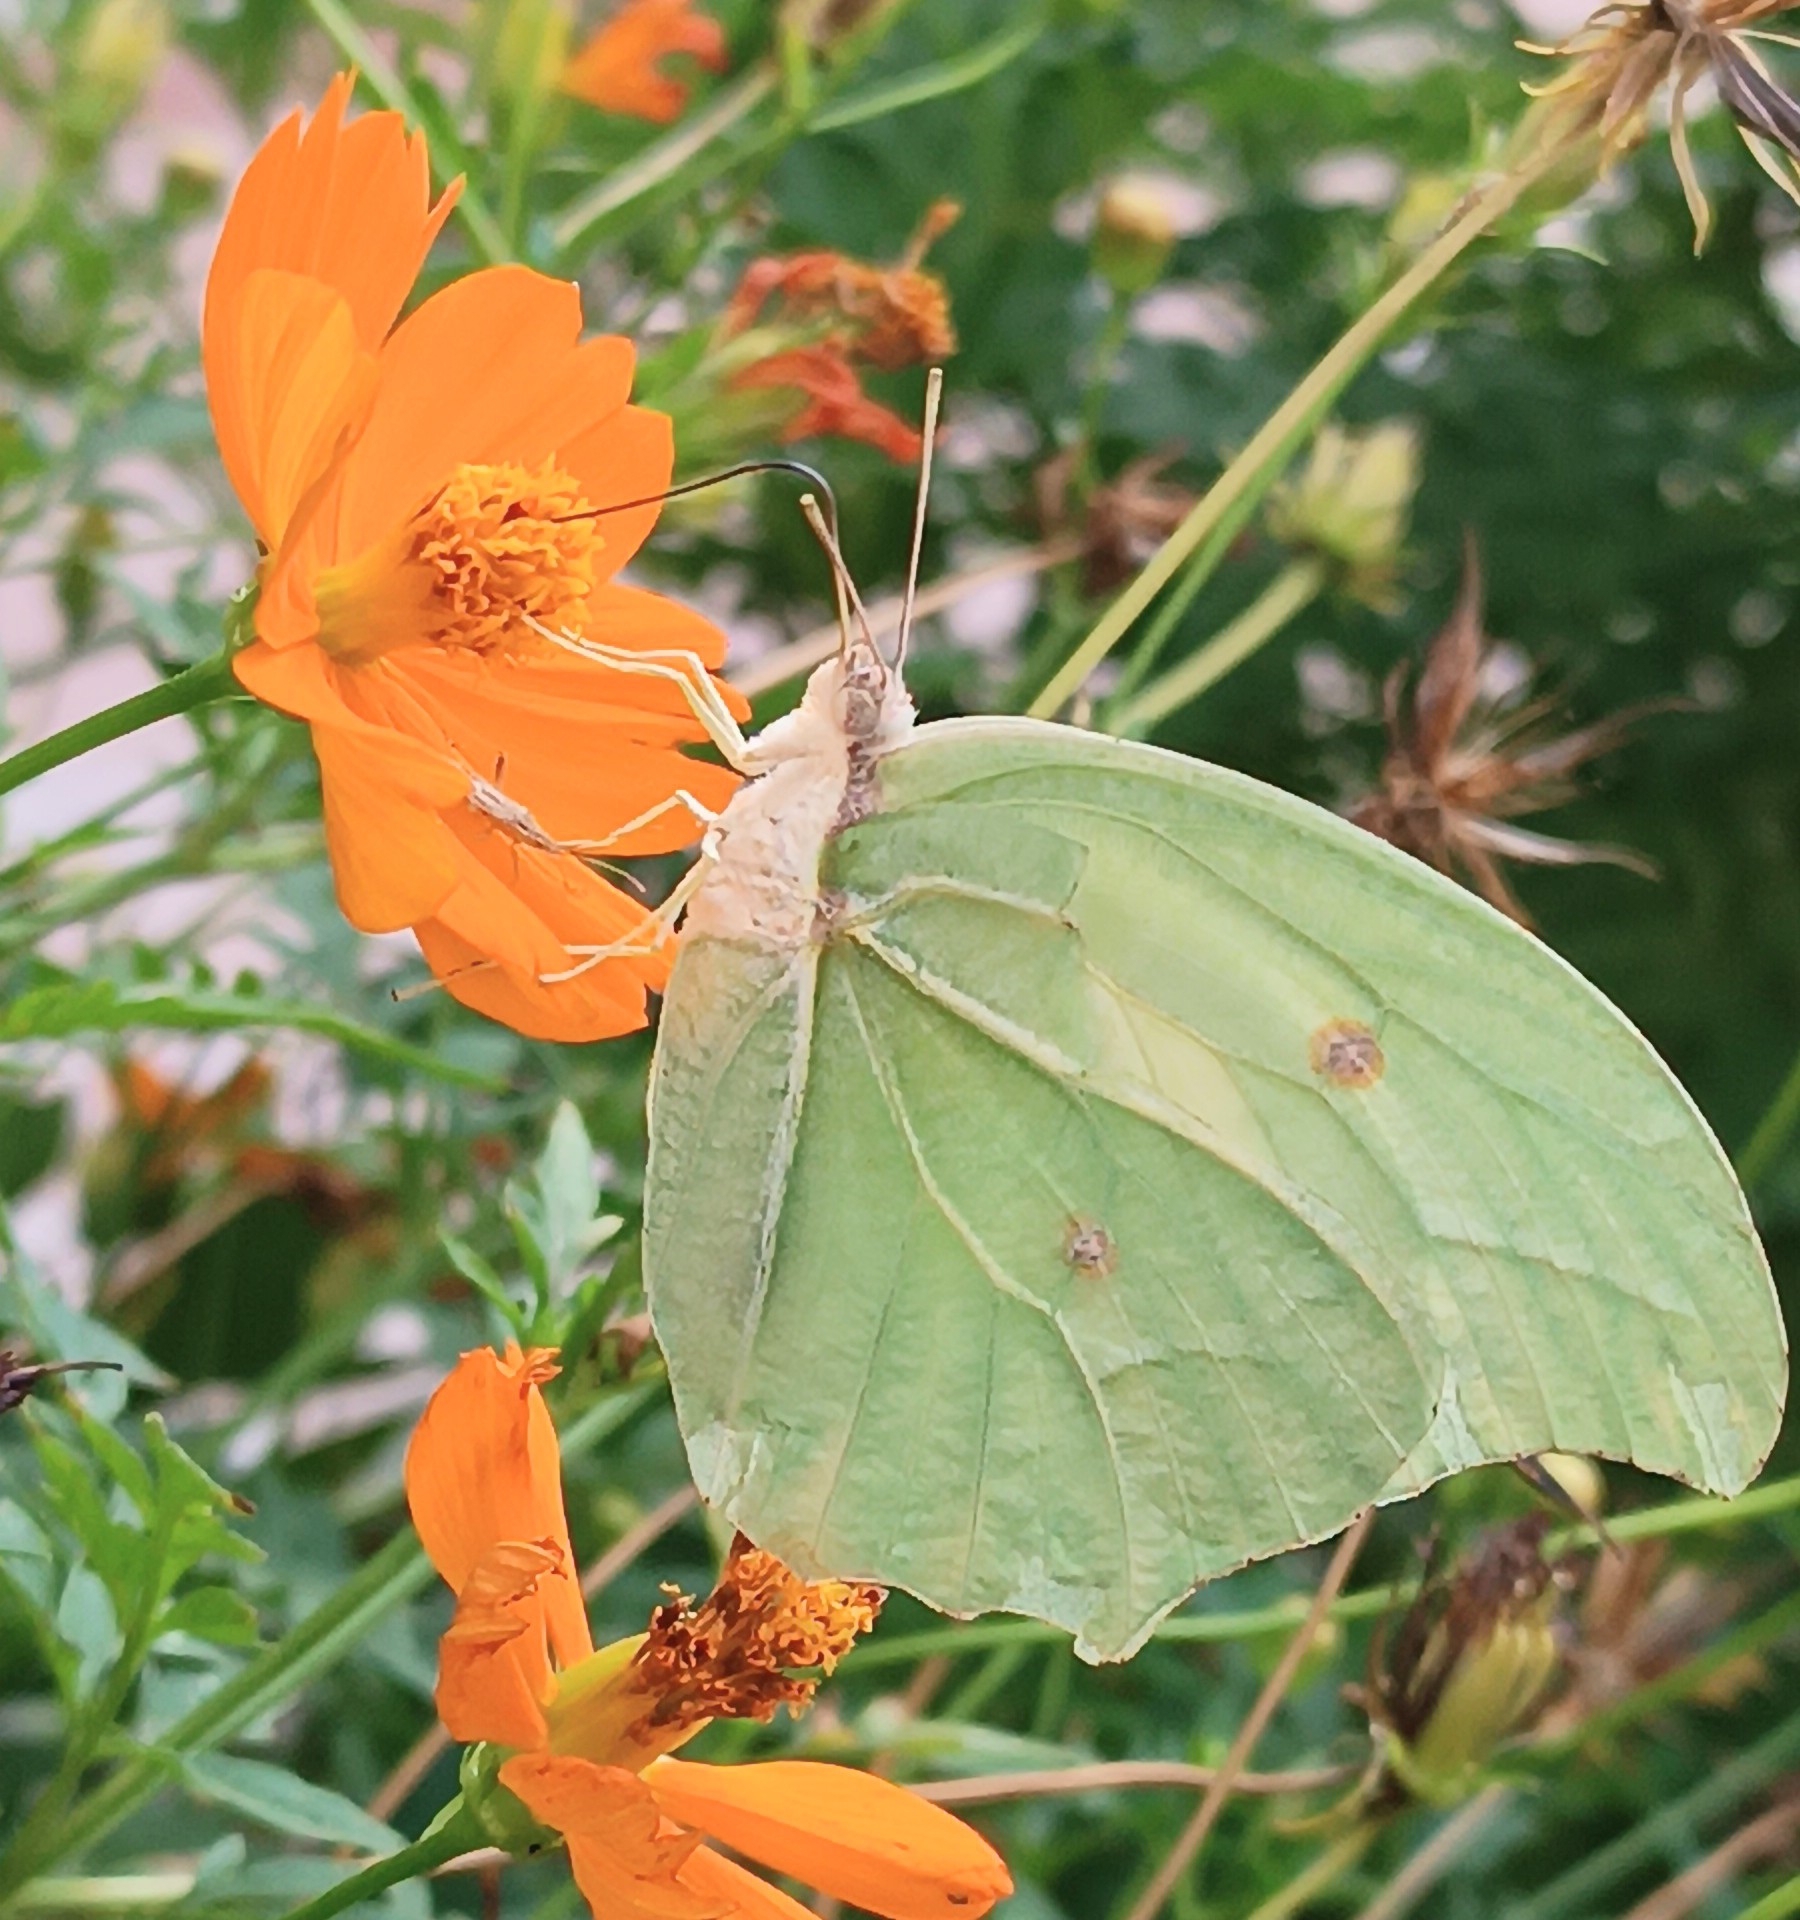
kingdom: Animalia
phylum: Arthropoda
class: Insecta
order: Lepidoptera
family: Pieridae
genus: Anteos
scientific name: Anteos clorinde
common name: White angled sulphur
